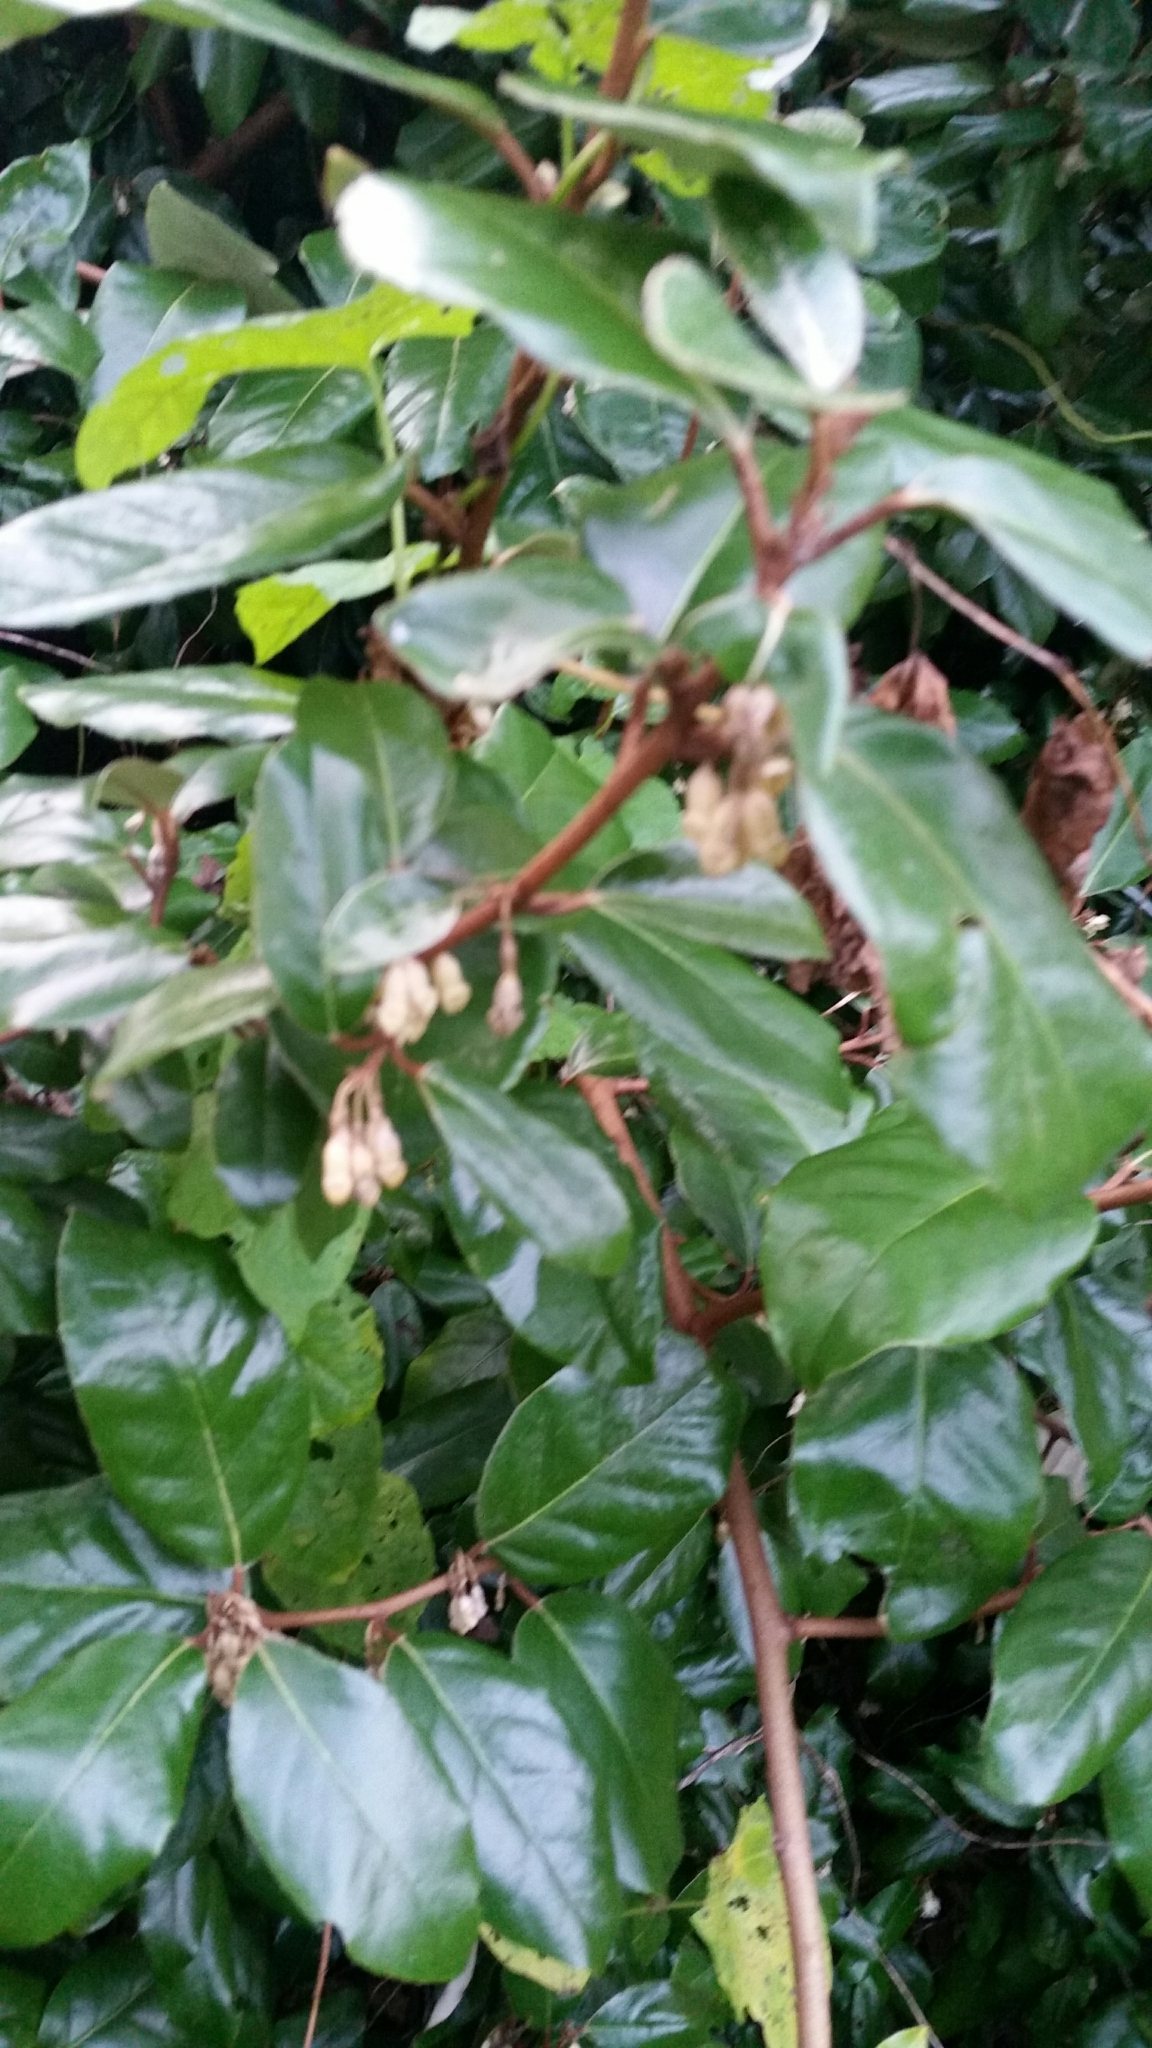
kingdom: Plantae
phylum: Tracheophyta
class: Magnoliopsida
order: Rosales
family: Elaeagnaceae
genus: Elaeagnus
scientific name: Elaeagnus macrophylla
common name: Broad-leaved oleaster
